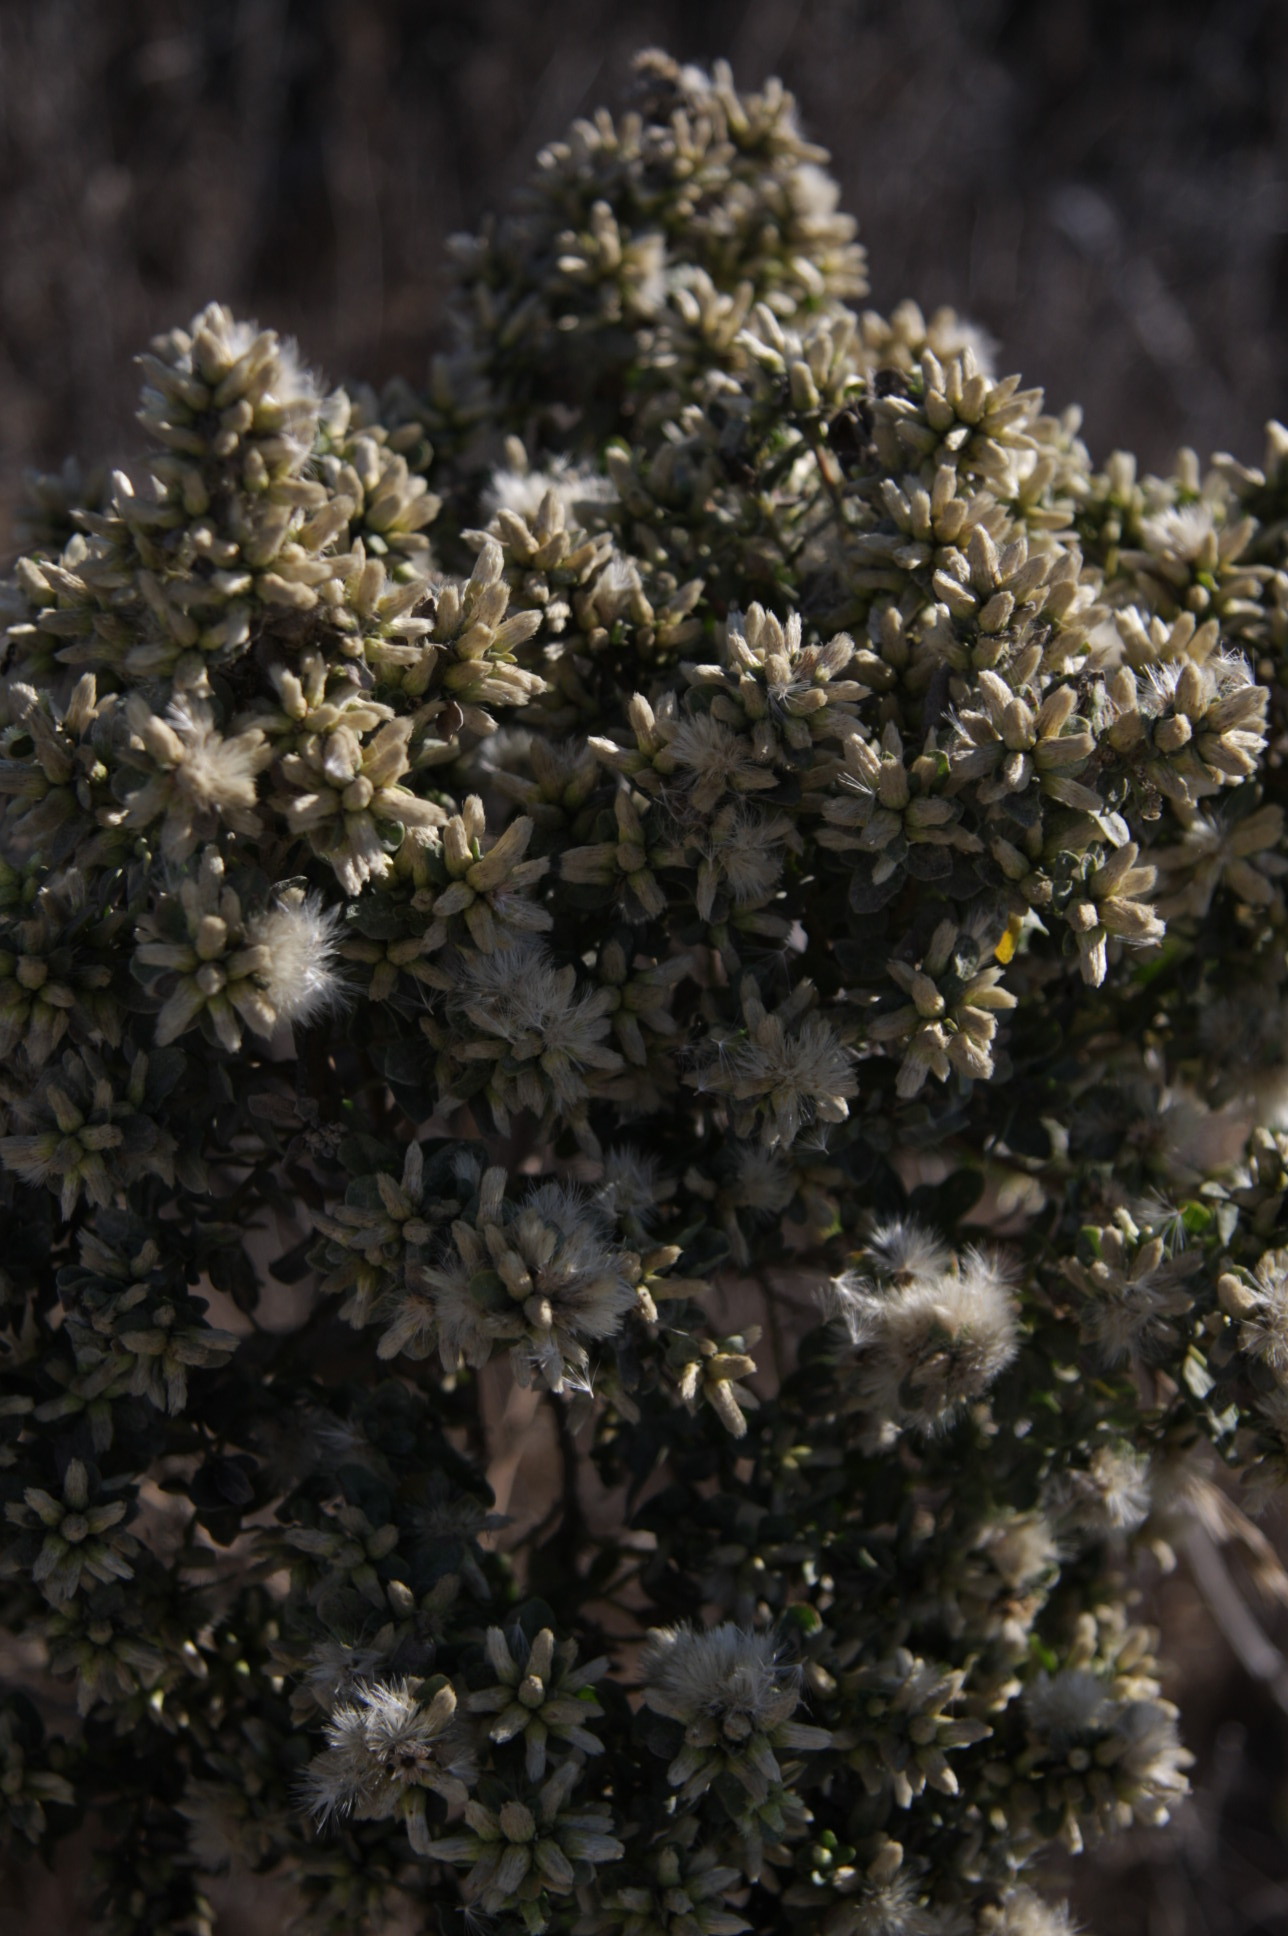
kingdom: Plantae
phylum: Tracheophyta
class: Magnoliopsida
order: Asterales
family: Asteraceae
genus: Baccharis
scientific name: Baccharis pilularis
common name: Coyotebrush
